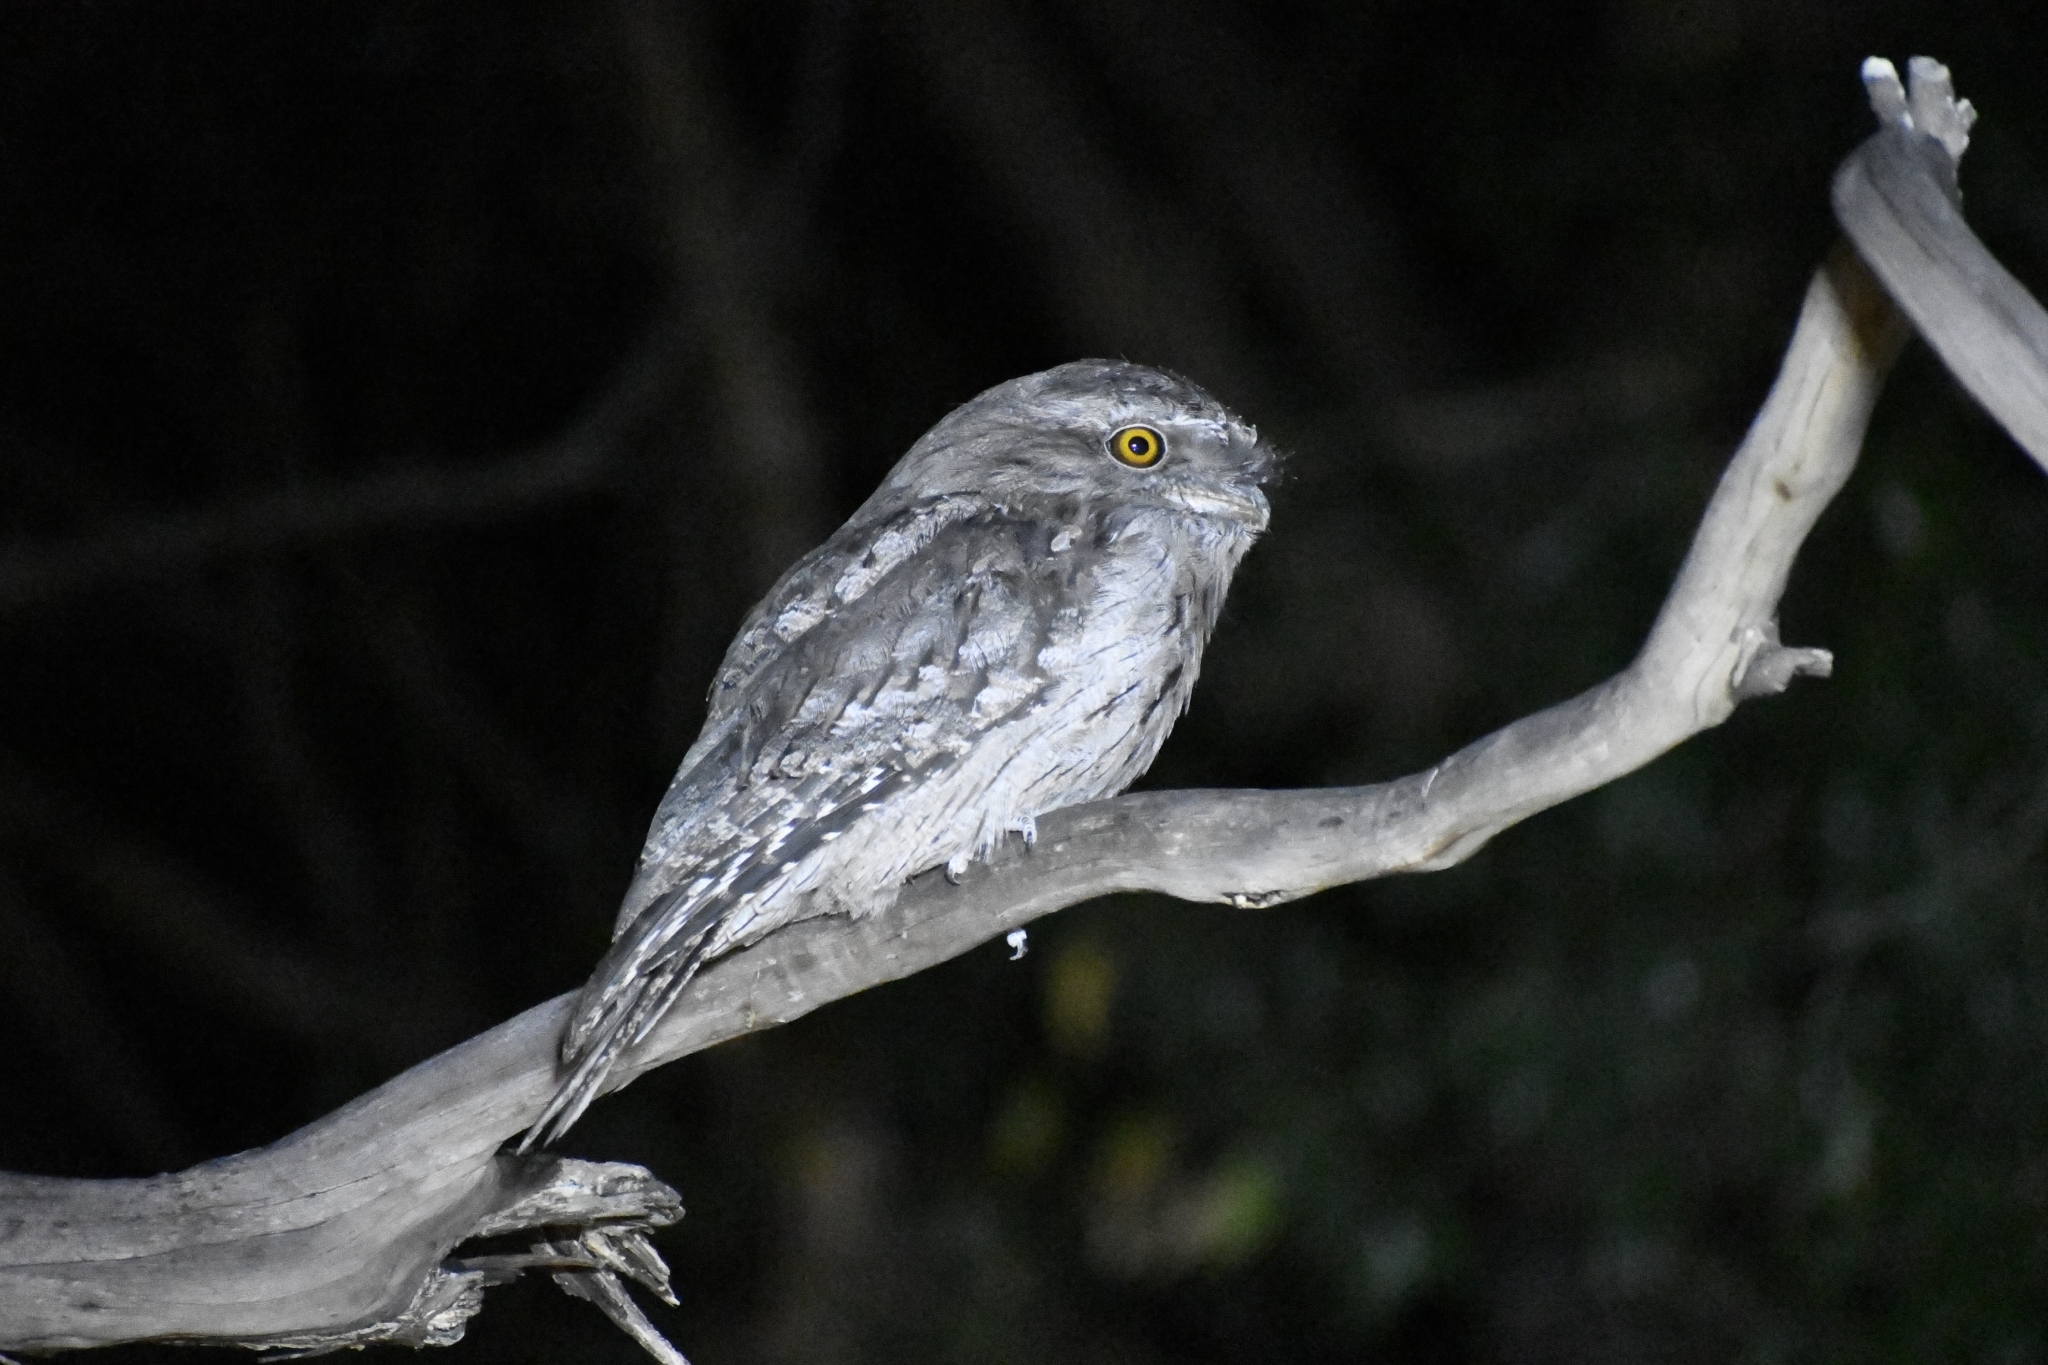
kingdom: Animalia
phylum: Chordata
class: Aves
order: Caprimulgiformes
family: Podargidae
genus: Podargus
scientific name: Podargus strigoides
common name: Tawny frogmouth
